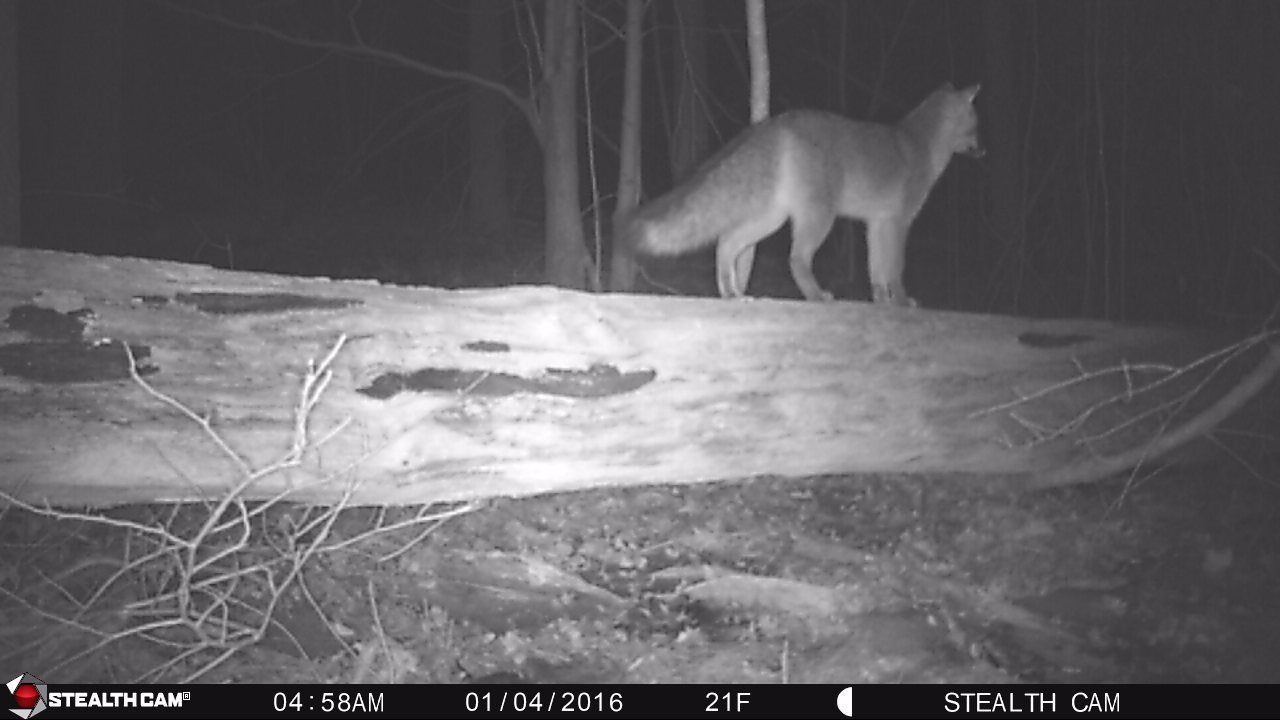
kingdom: Animalia
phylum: Chordata
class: Mammalia
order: Carnivora
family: Canidae
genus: Urocyon
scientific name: Urocyon cinereoargenteus
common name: Gray fox
